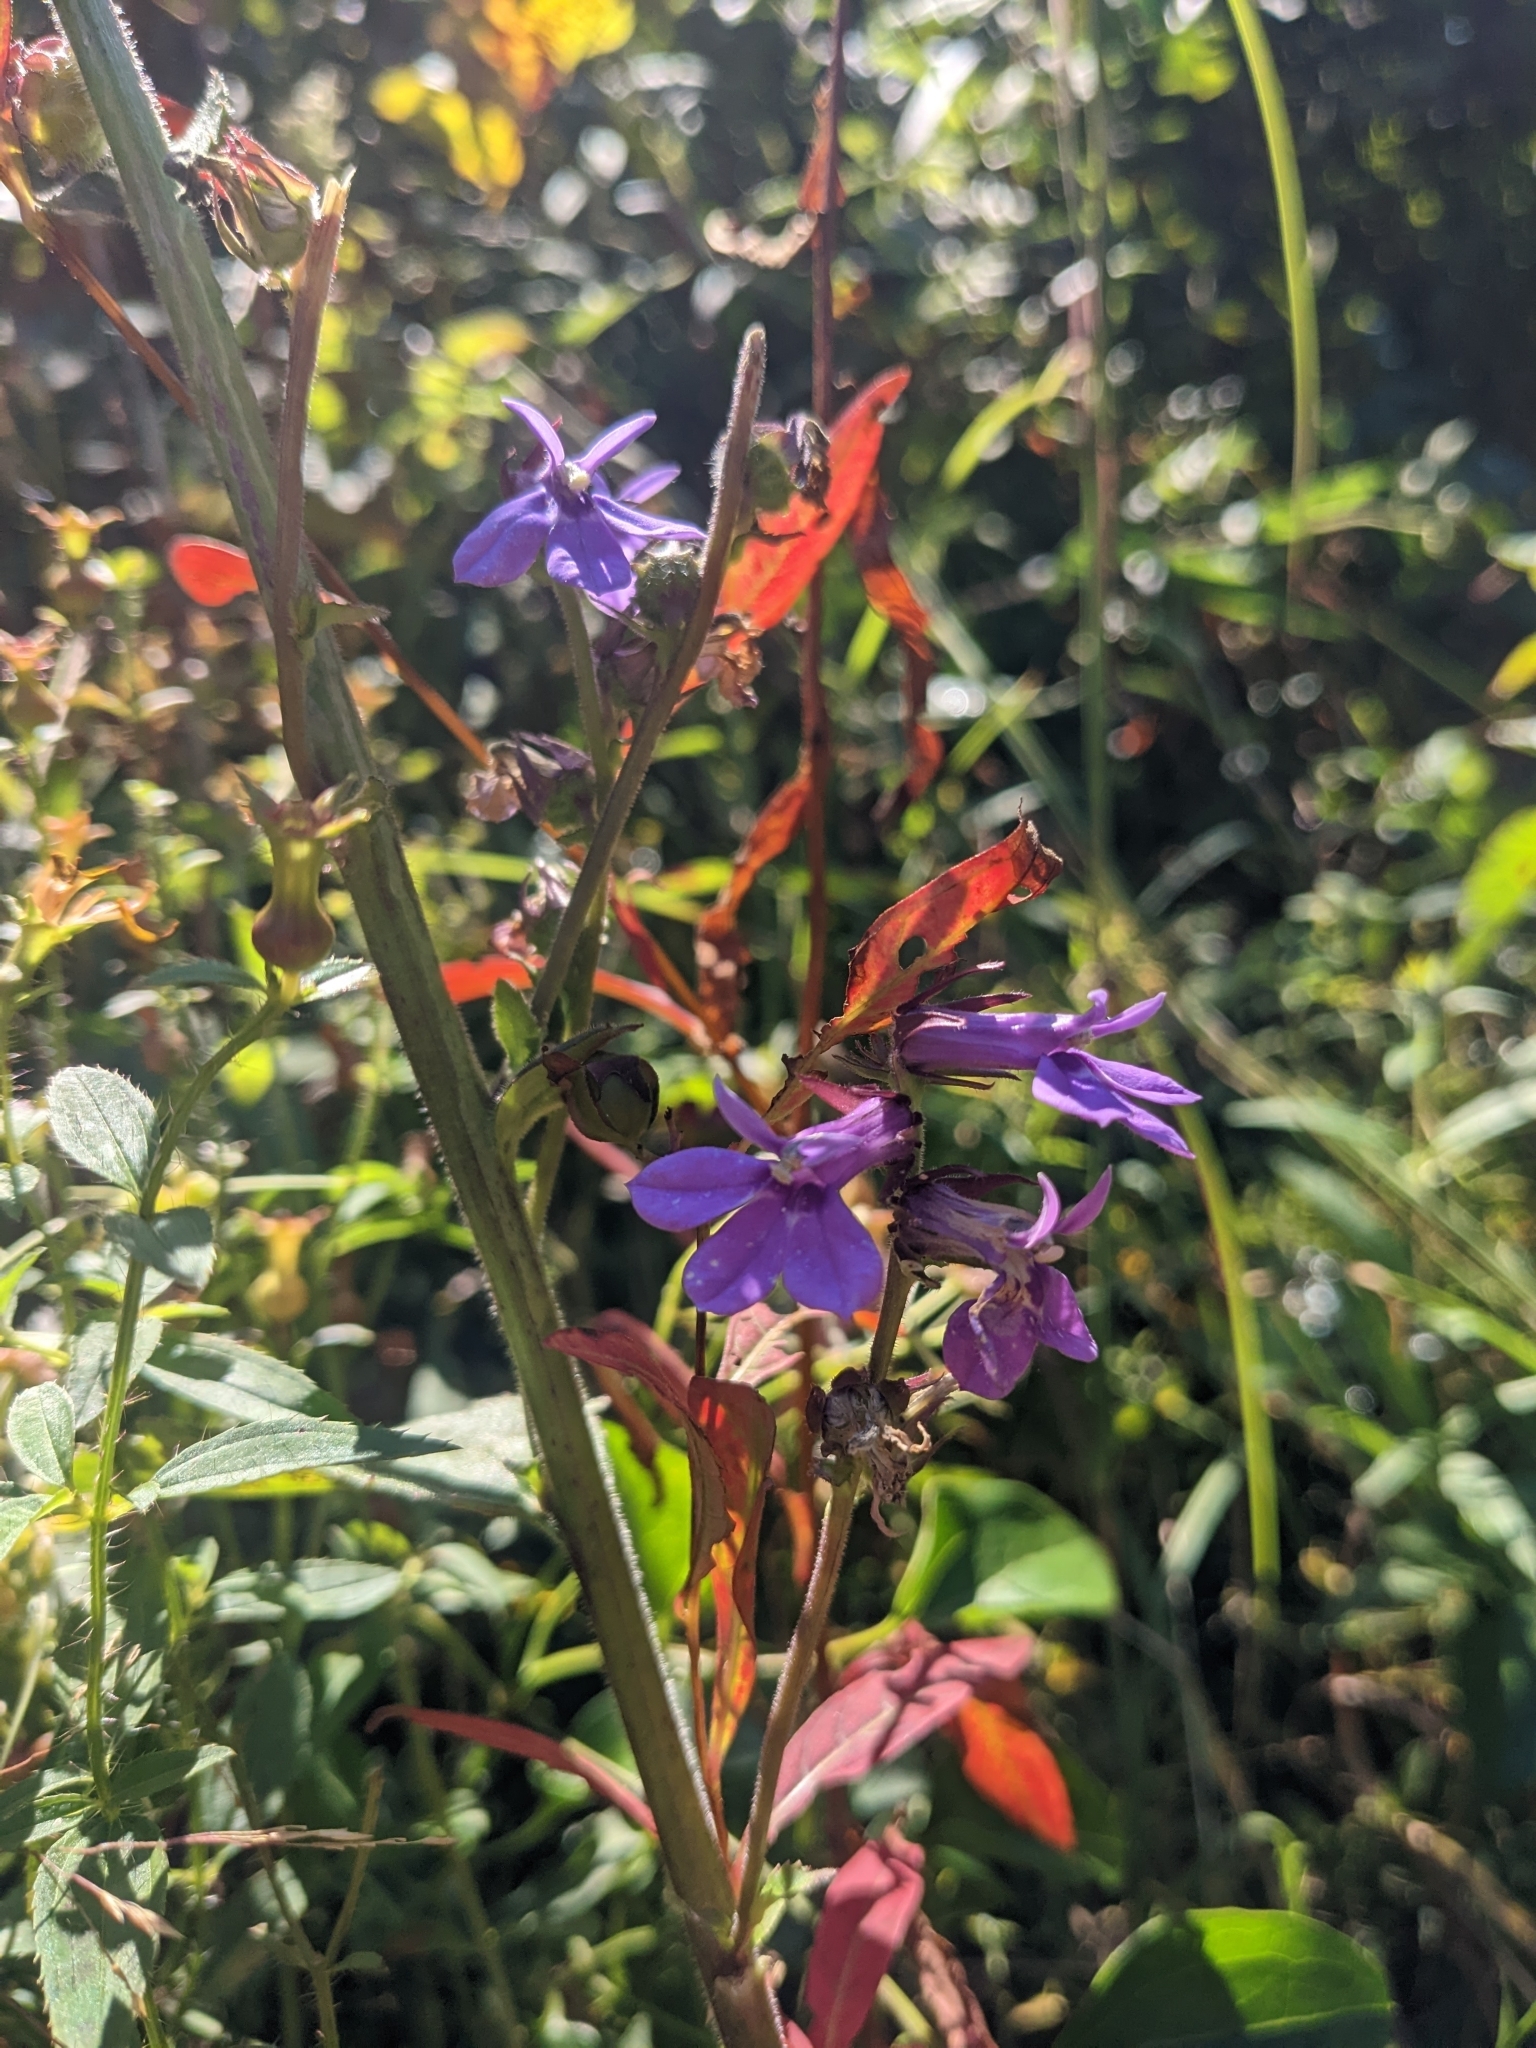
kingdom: Plantae
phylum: Tracheophyta
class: Magnoliopsida
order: Asterales
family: Campanulaceae
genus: Lobelia
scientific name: Lobelia puberula
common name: Purple dewdrop
